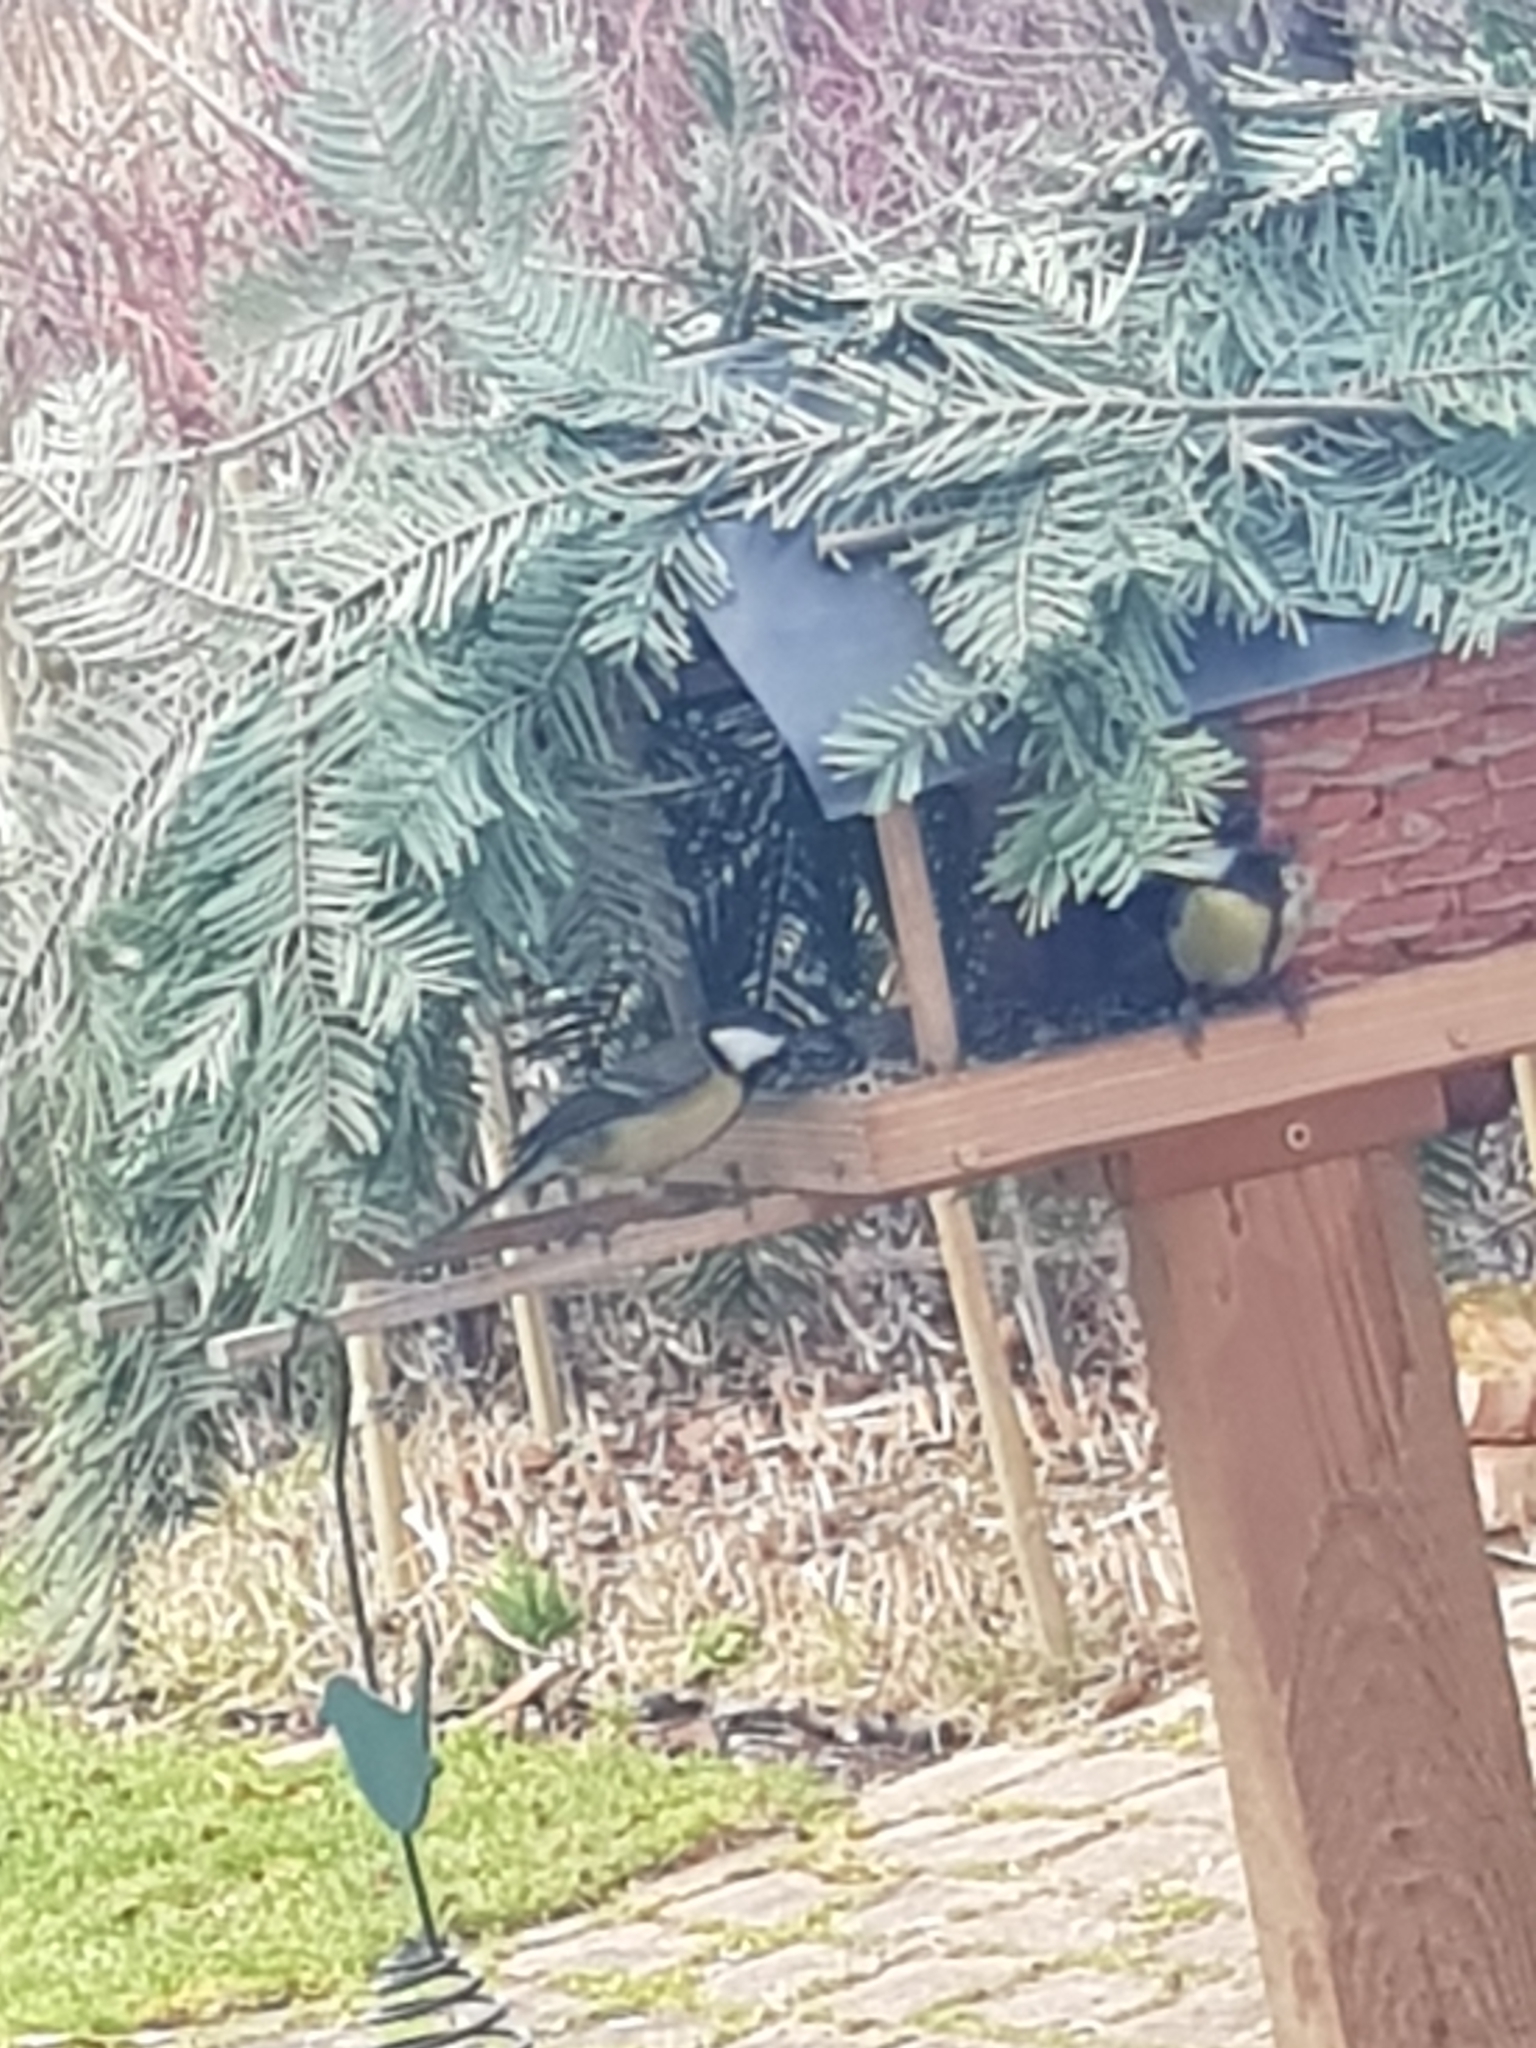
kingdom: Animalia
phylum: Chordata
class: Aves
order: Passeriformes
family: Paridae
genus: Parus
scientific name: Parus major
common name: Great tit
